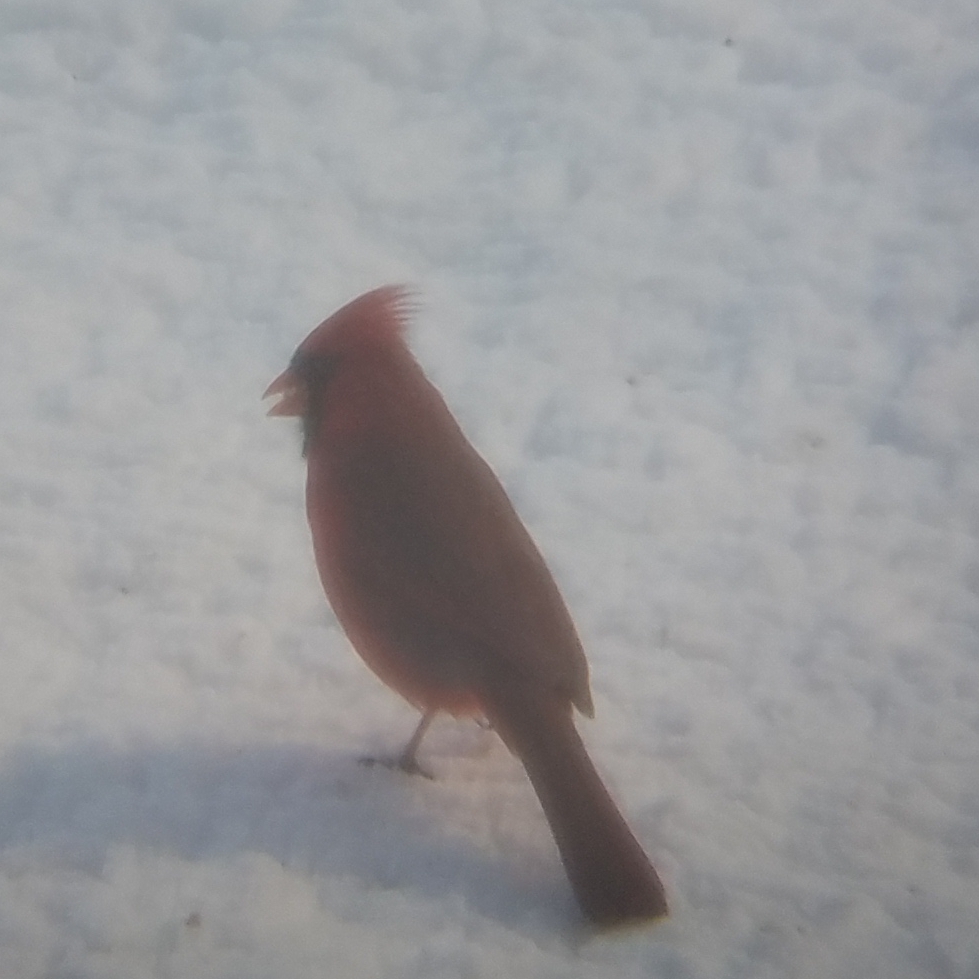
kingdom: Animalia
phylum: Chordata
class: Aves
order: Passeriformes
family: Cardinalidae
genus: Cardinalis
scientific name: Cardinalis cardinalis
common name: Northern cardinal
